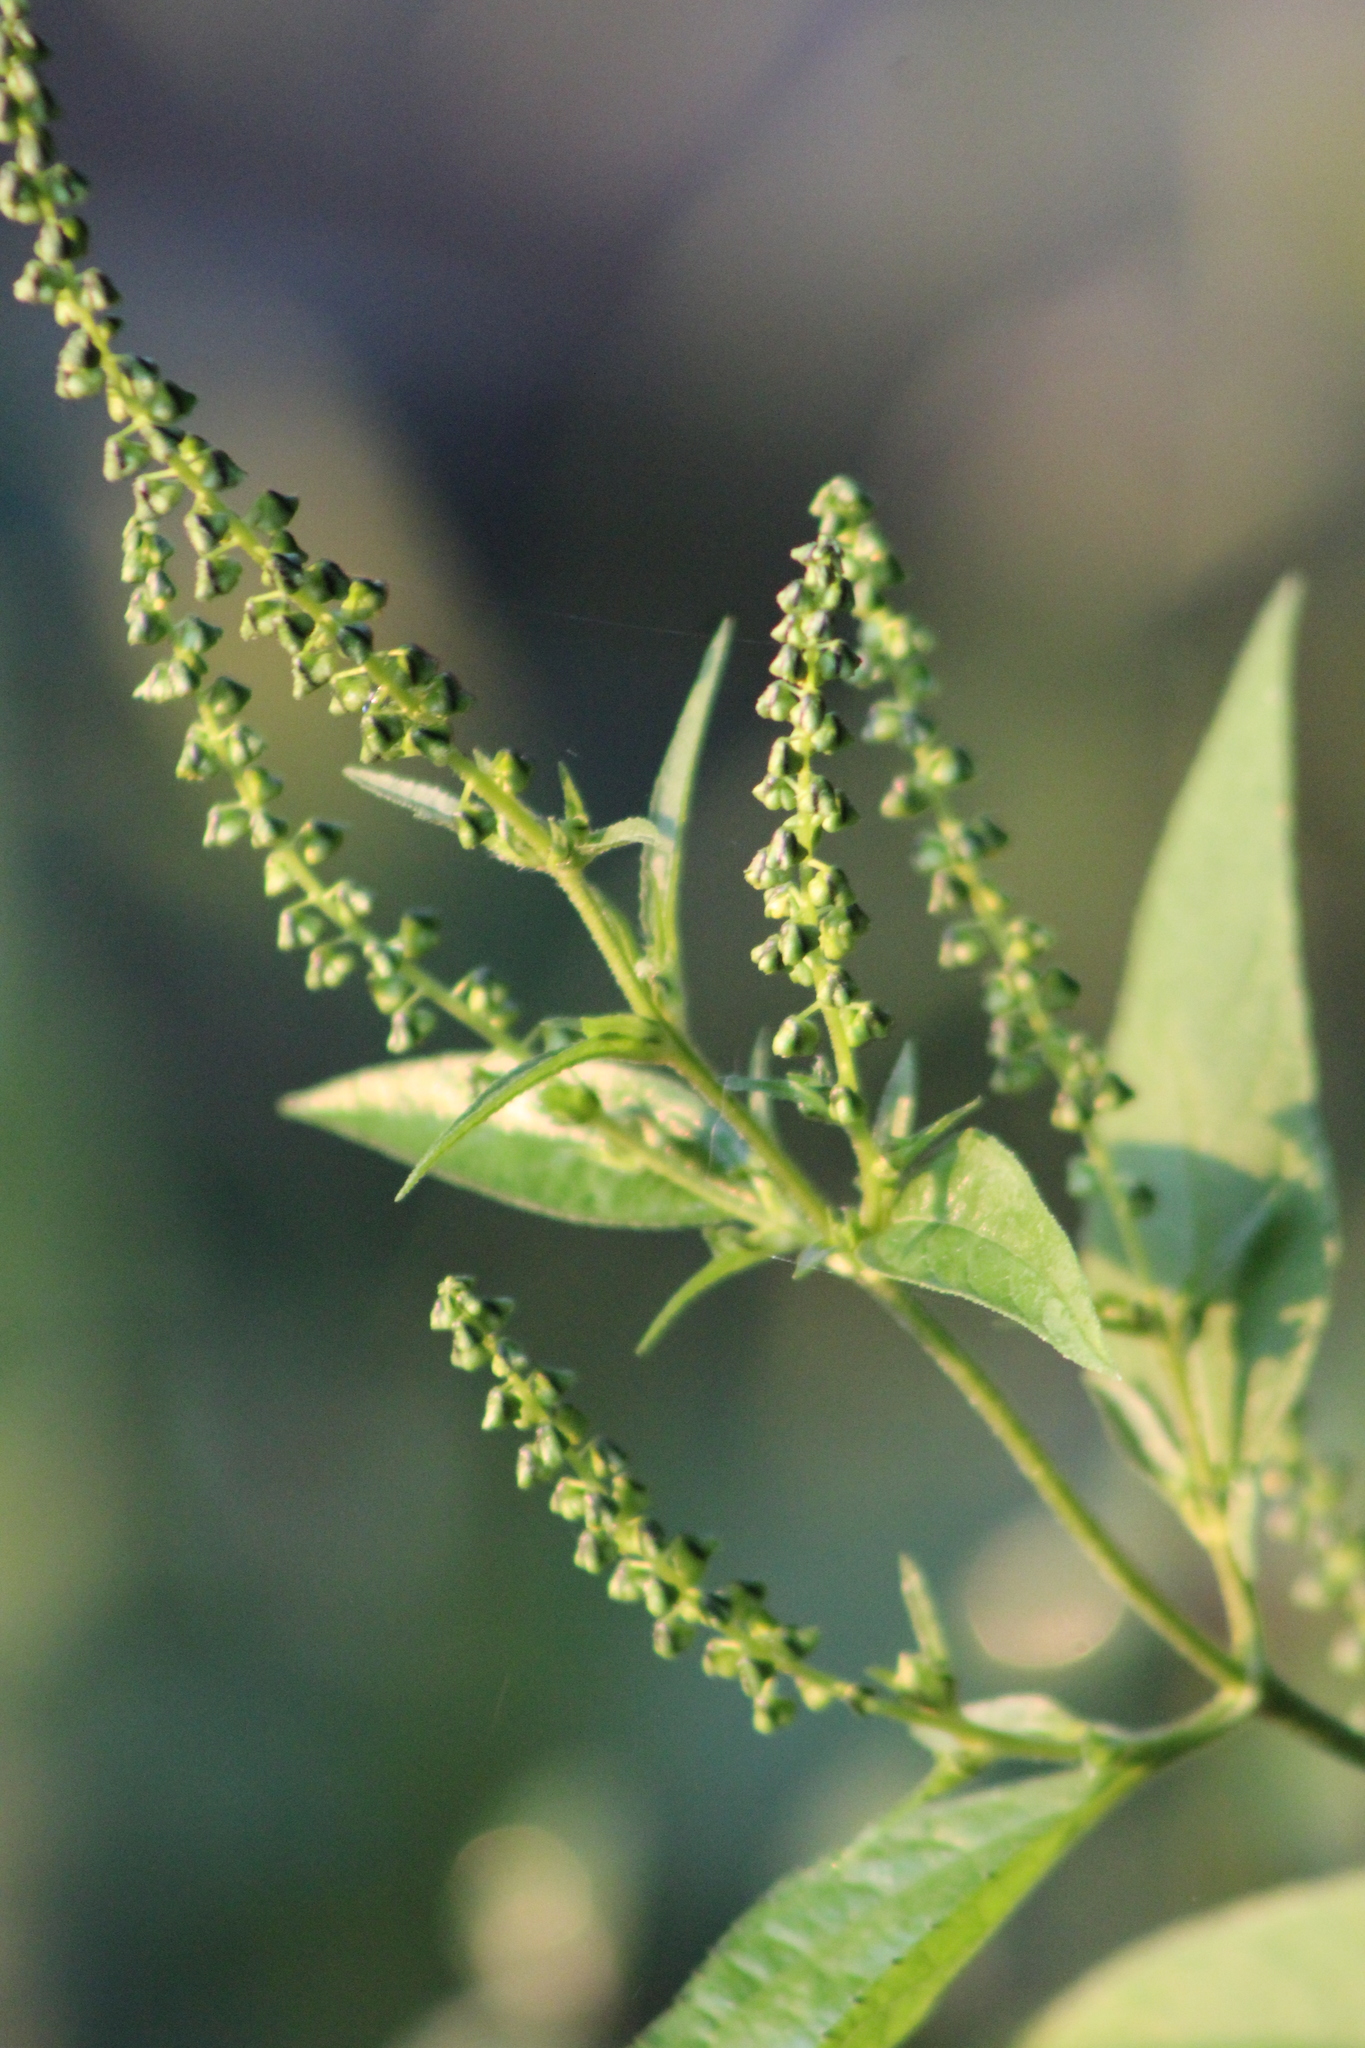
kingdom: Plantae
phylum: Tracheophyta
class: Magnoliopsida
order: Asterales
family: Asteraceae
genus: Ambrosia
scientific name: Ambrosia trifida
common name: Giant ragweed
